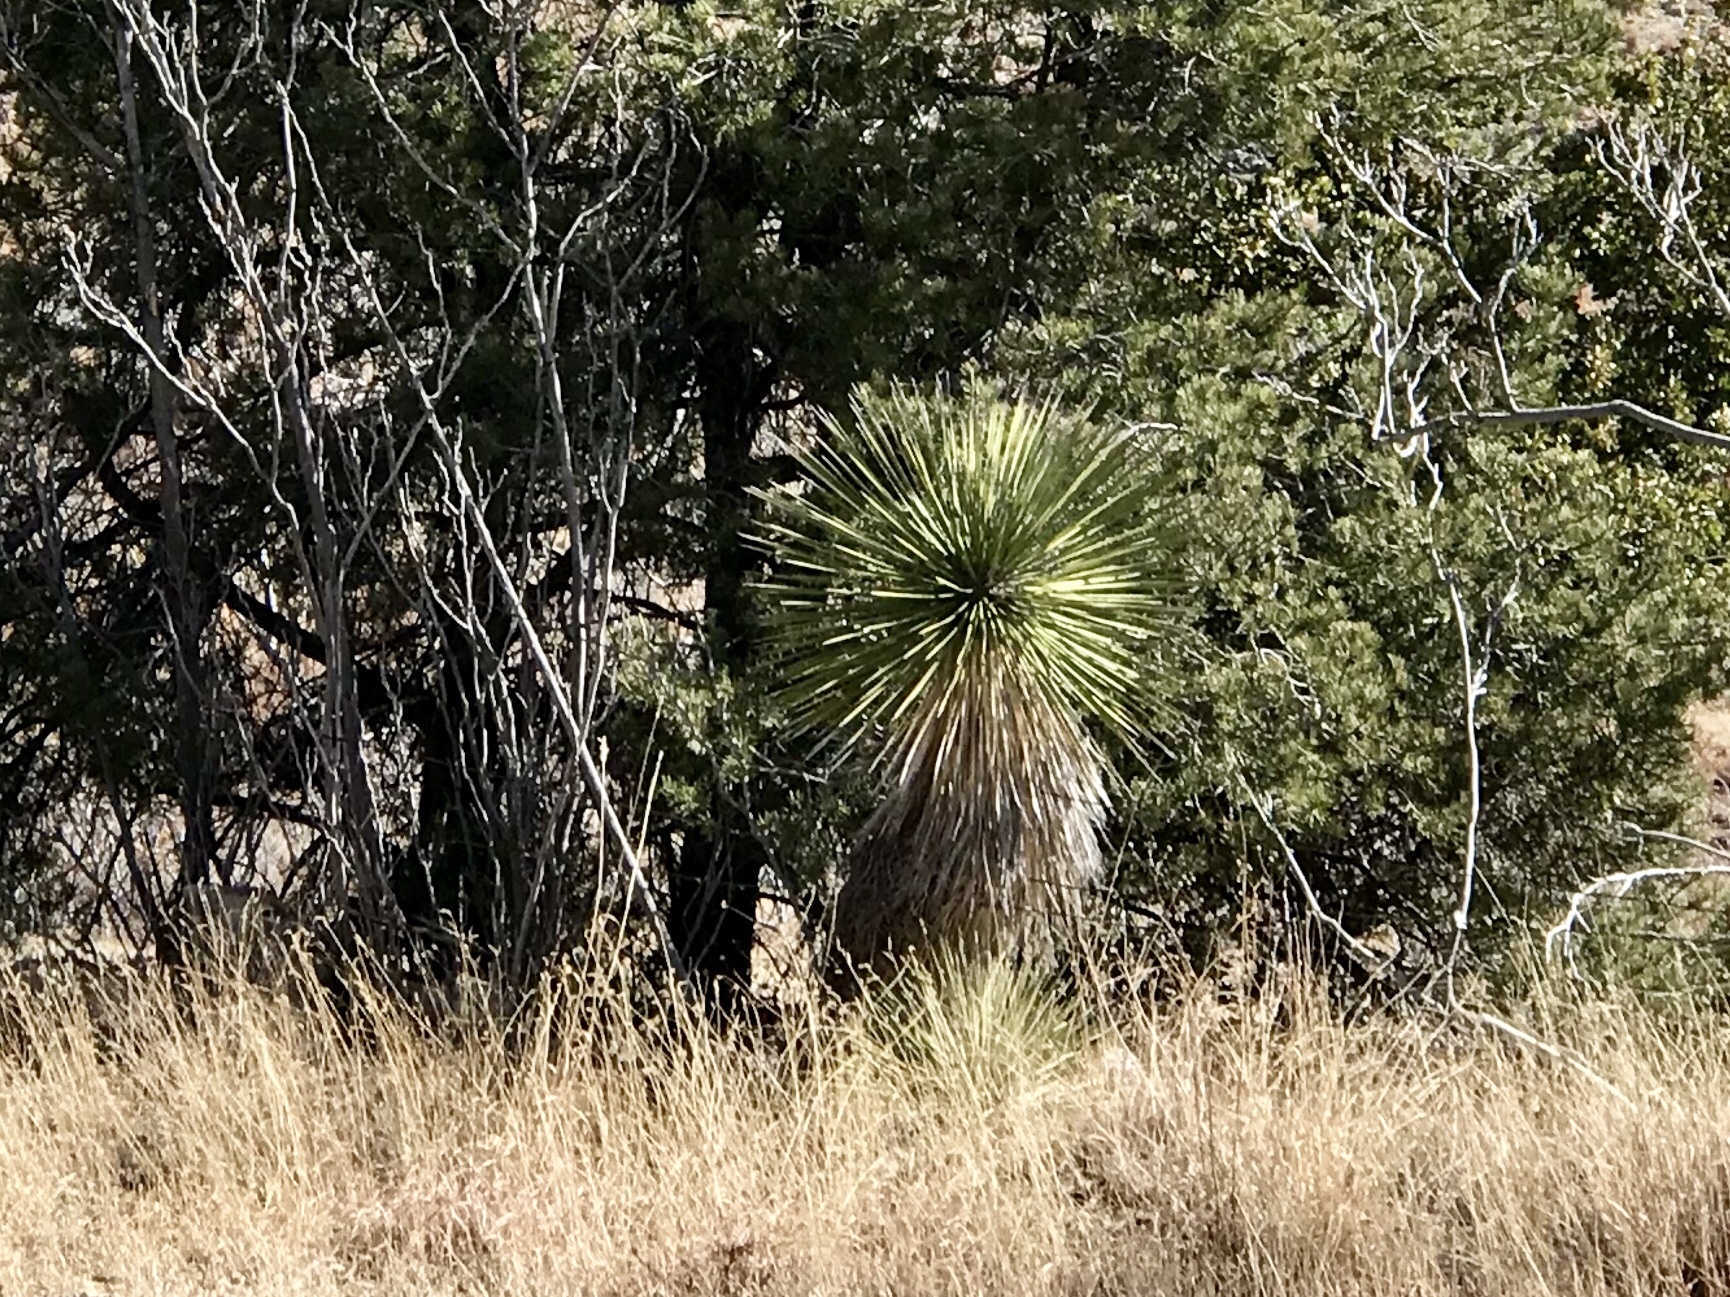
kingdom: Plantae
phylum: Tracheophyta
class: Liliopsida
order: Asparagales
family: Asparagaceae
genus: Yucca
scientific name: Yucca elata
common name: Palmella
